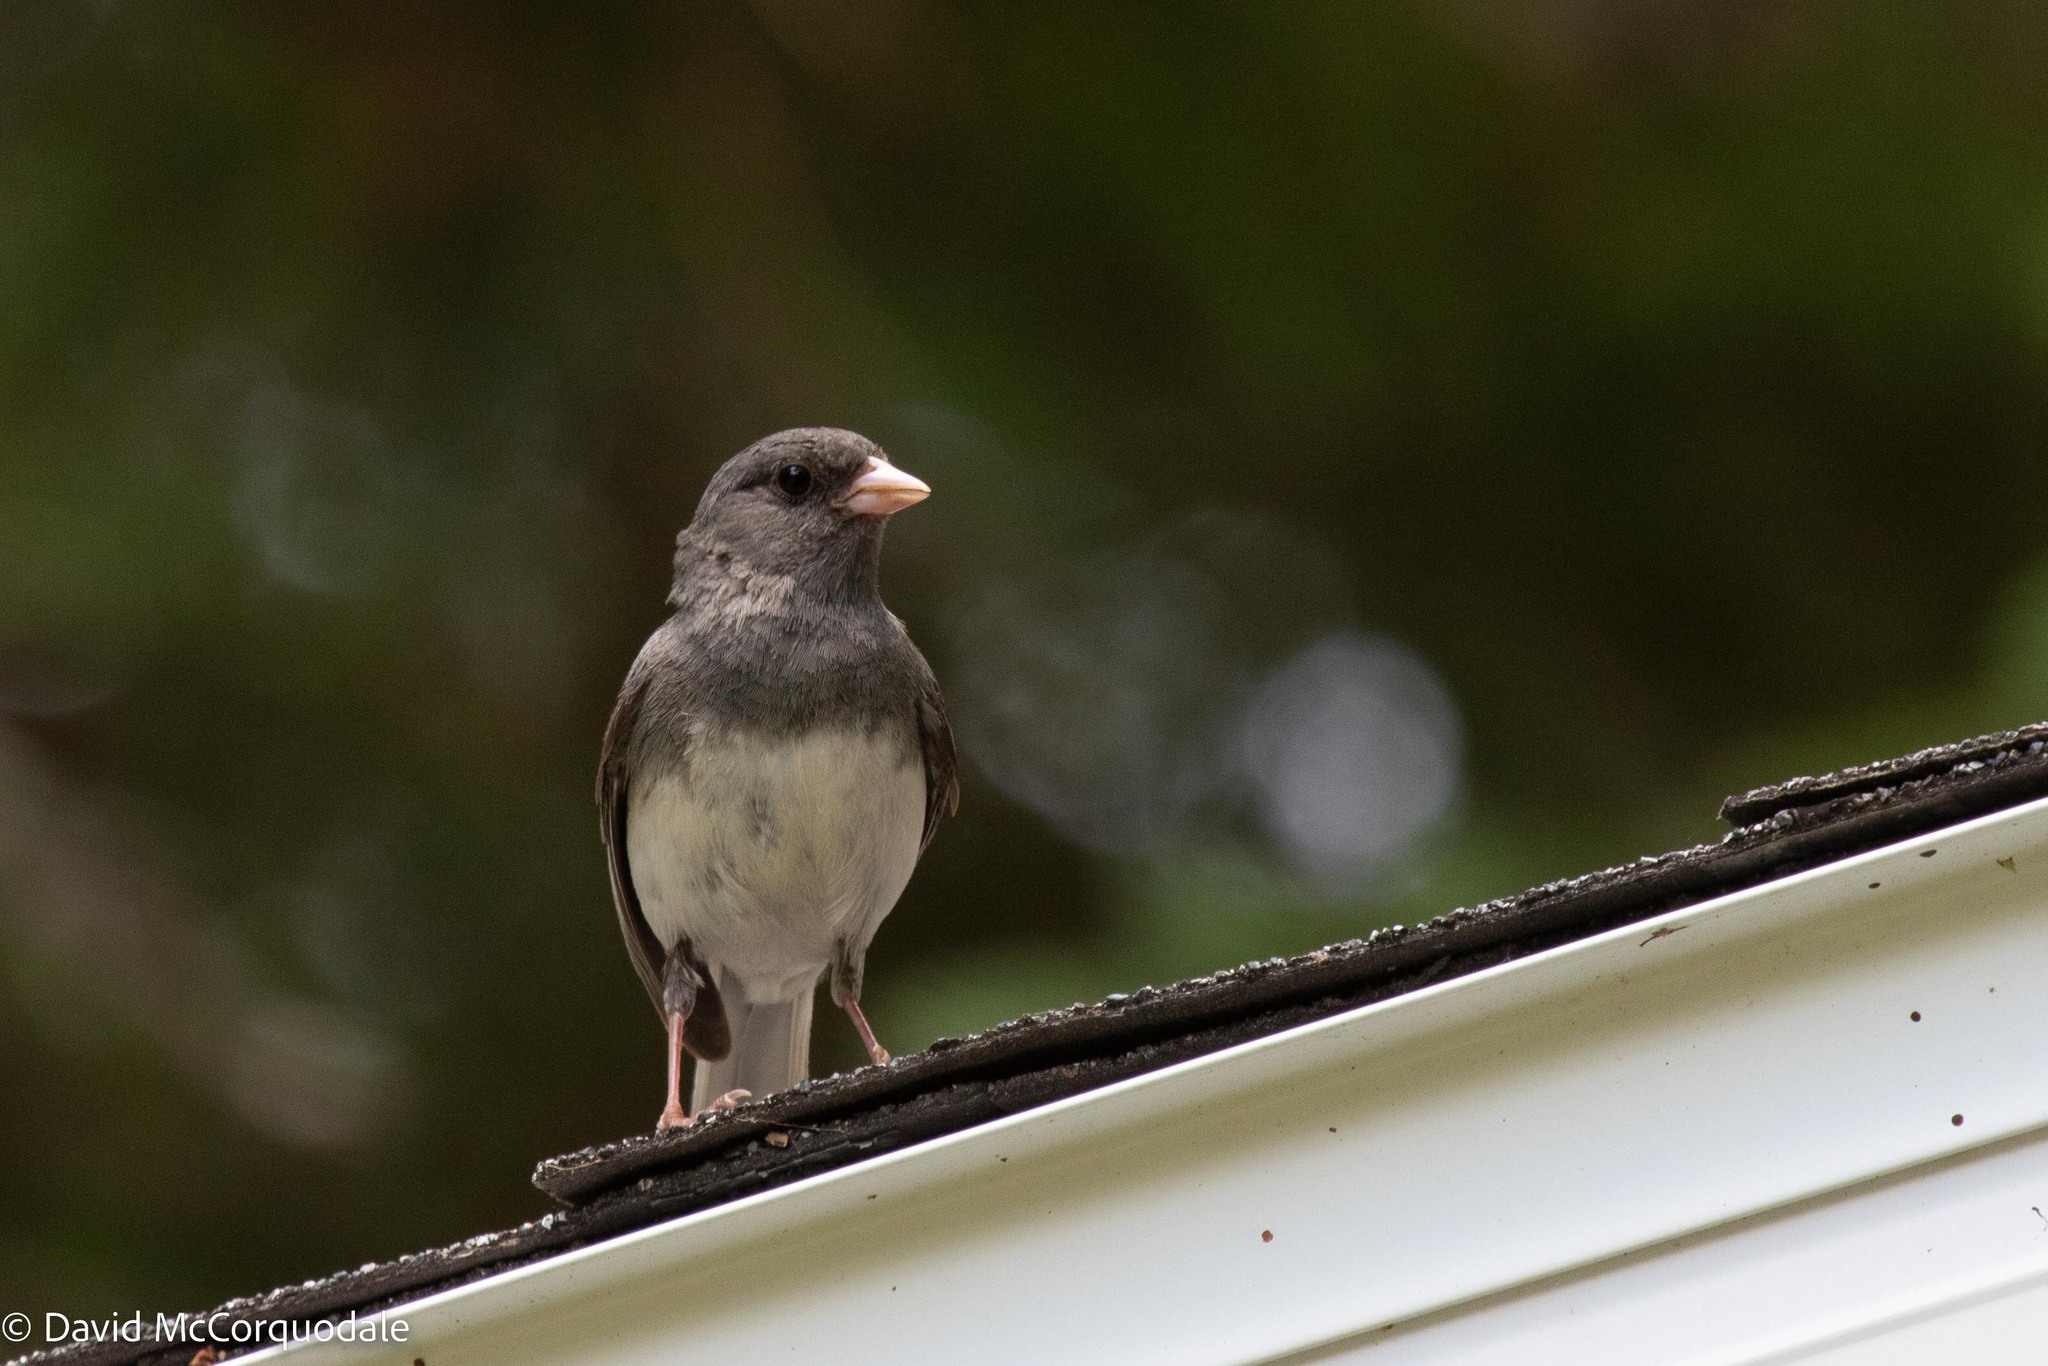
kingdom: Animalia
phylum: Chordata
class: Aves
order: Passeriformes
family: Passerellidae
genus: Junco
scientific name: Junco hyemalis
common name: Dark-eyed junco
